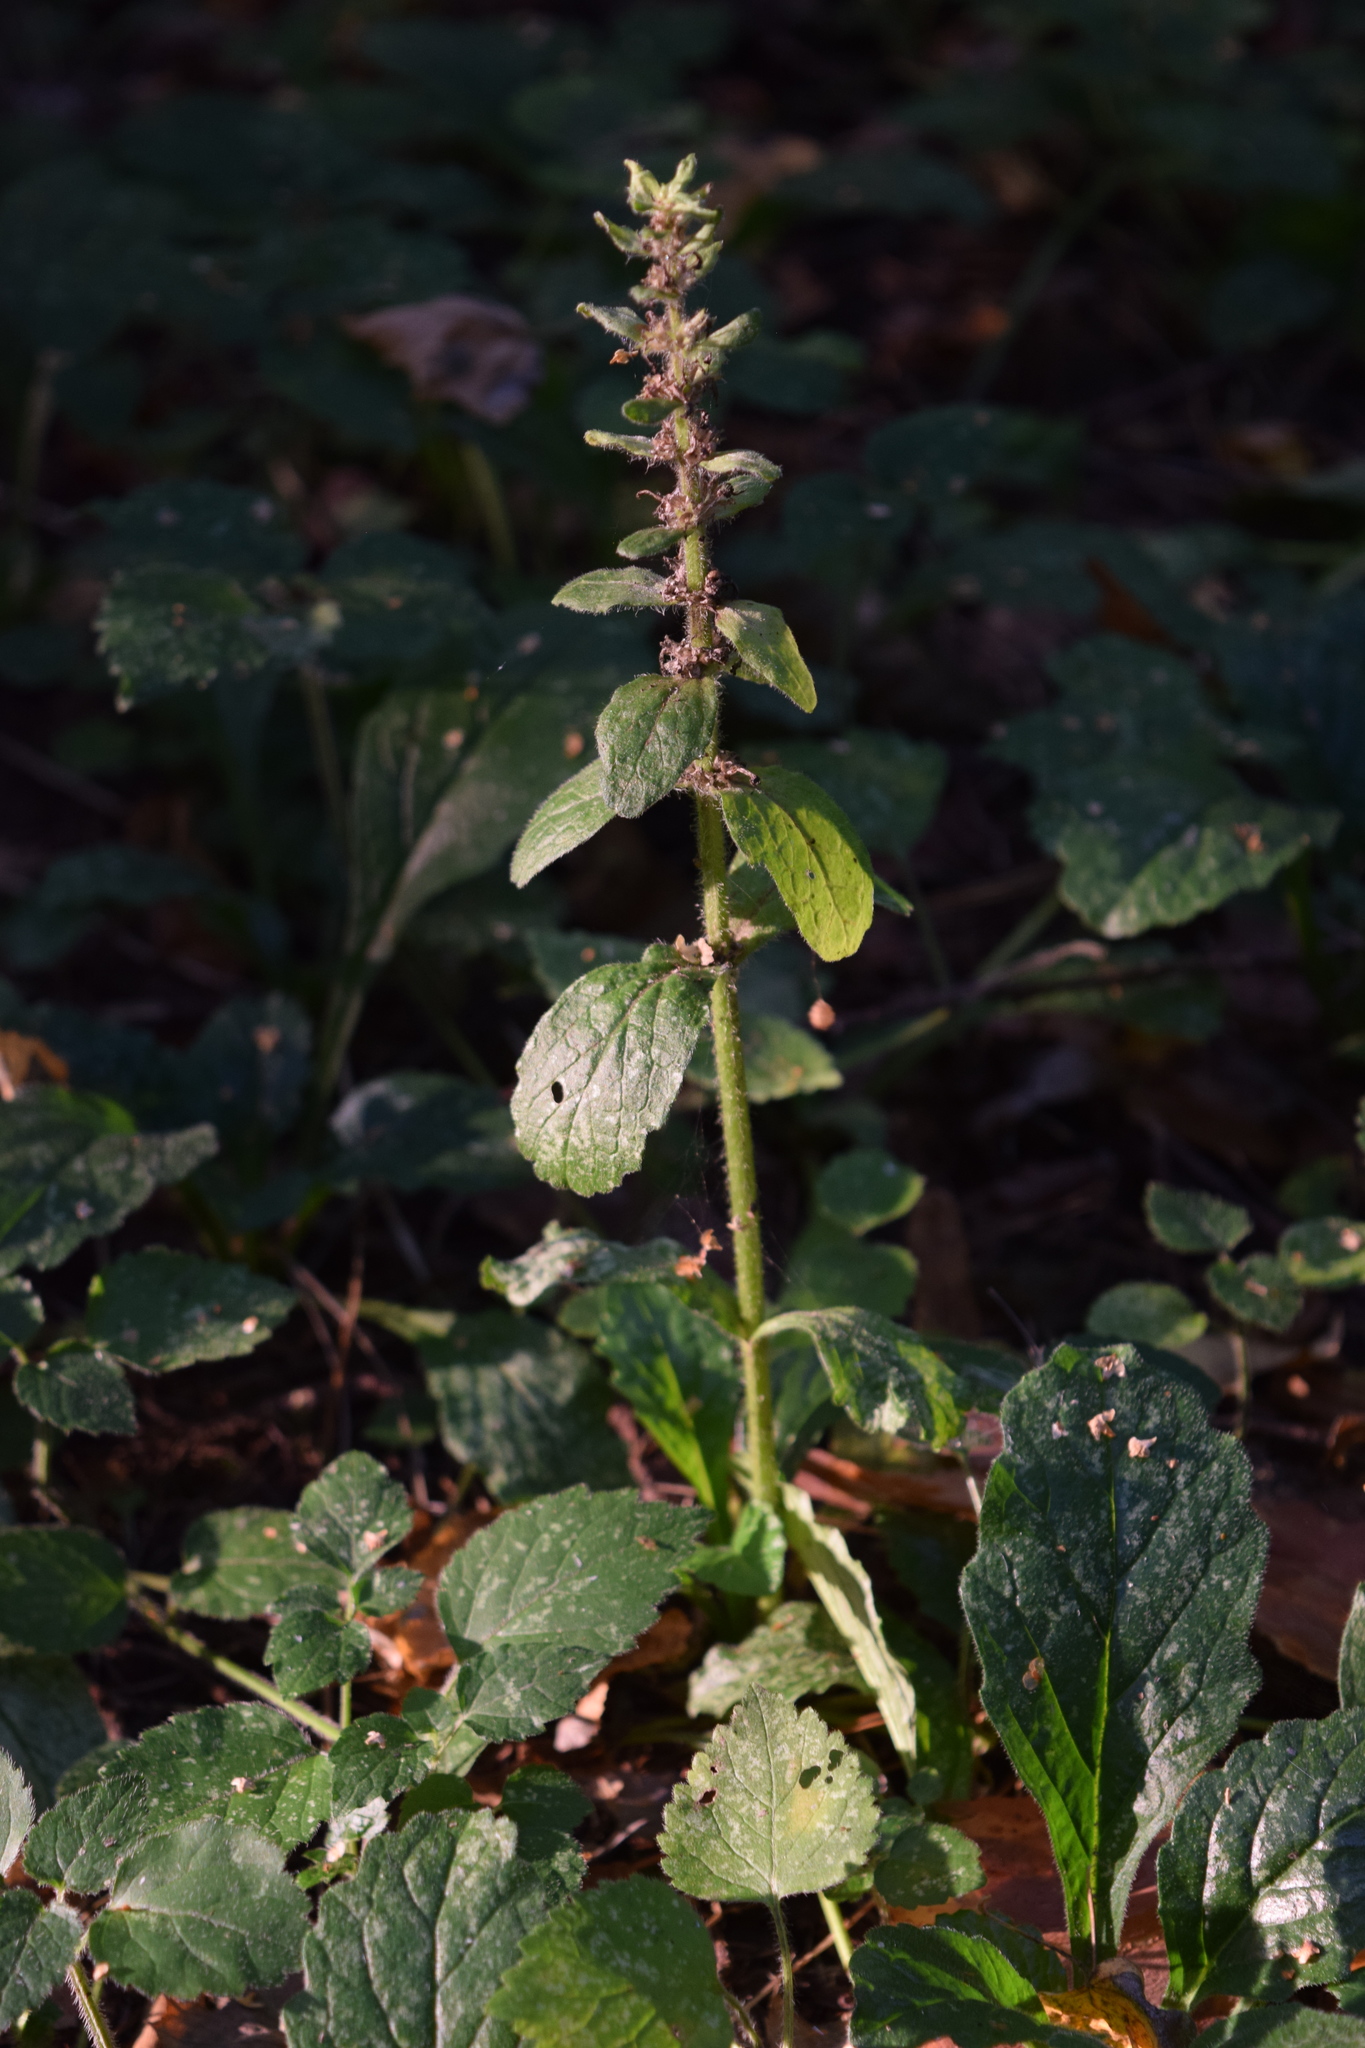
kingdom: Plantae
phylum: Tracheophyta
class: Magnoliopsida
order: Lamiales
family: Lamiaceae
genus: Ajuga
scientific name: Ajuga reptans
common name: Bugle
